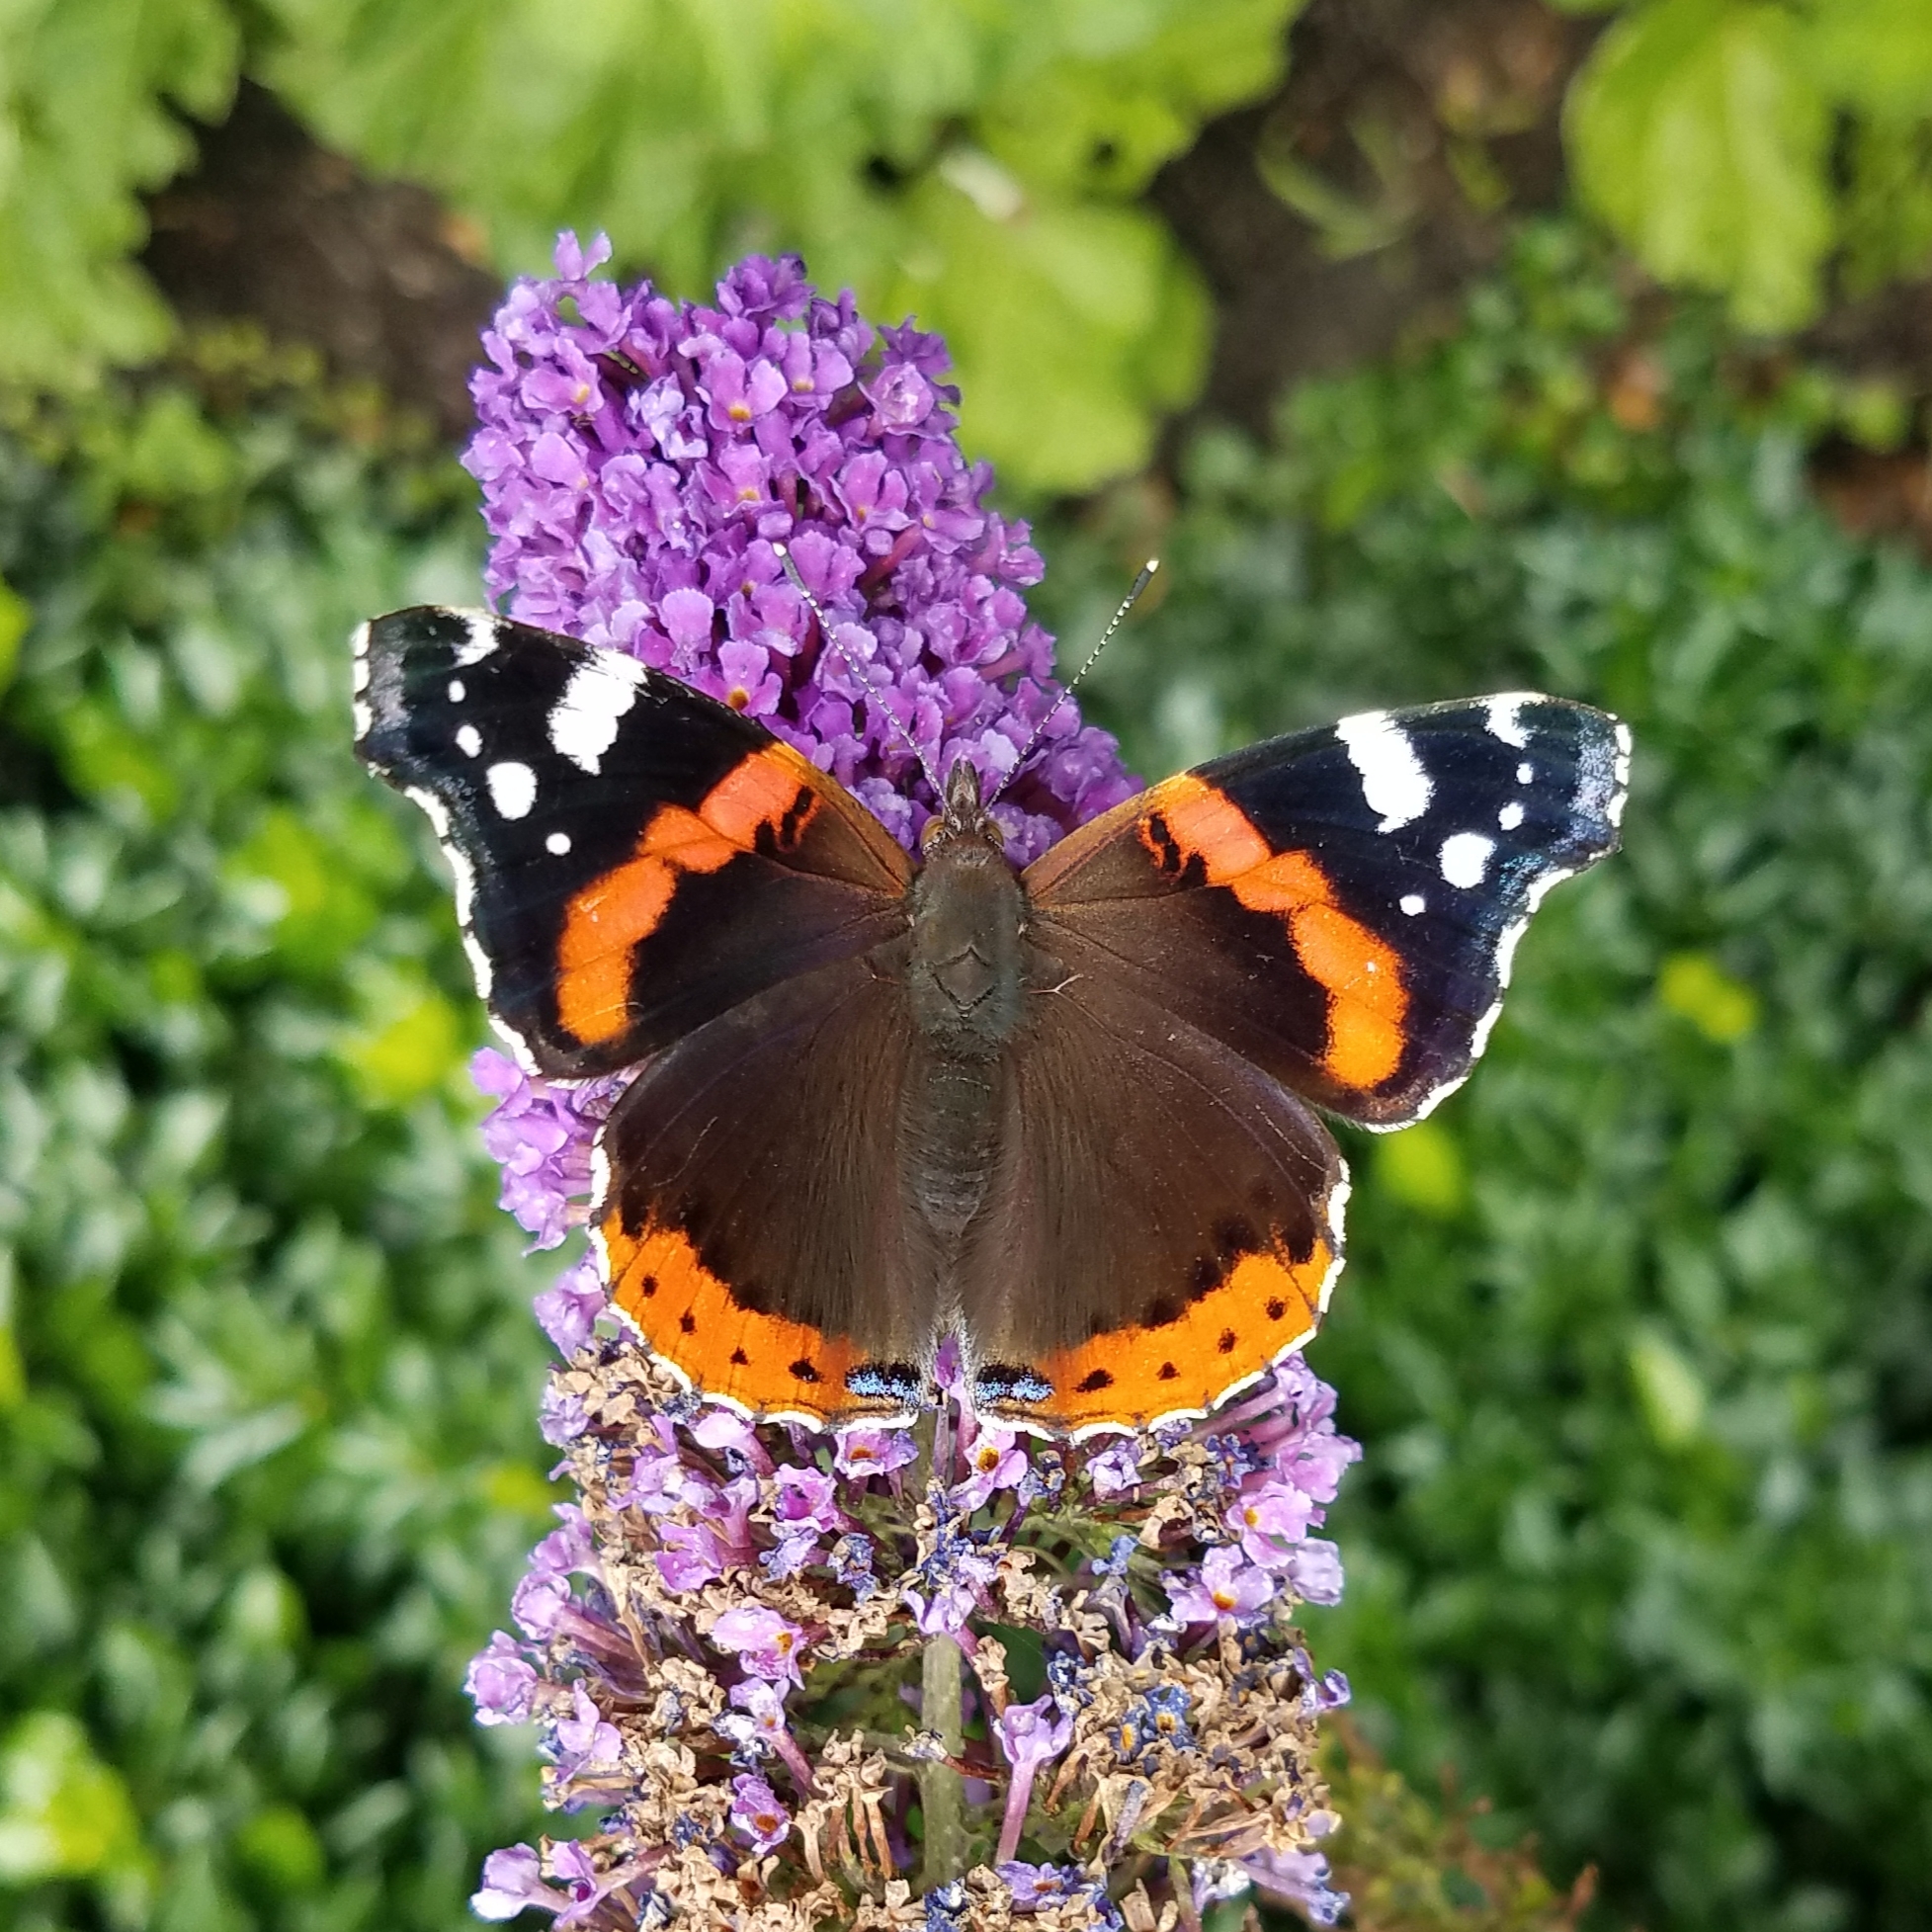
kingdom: Animalia
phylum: Arthropoda
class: Insecta
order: Lepidoptera
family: Nymphalidae
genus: Vanessa
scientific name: Vanessa atalanta
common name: Red admiral
